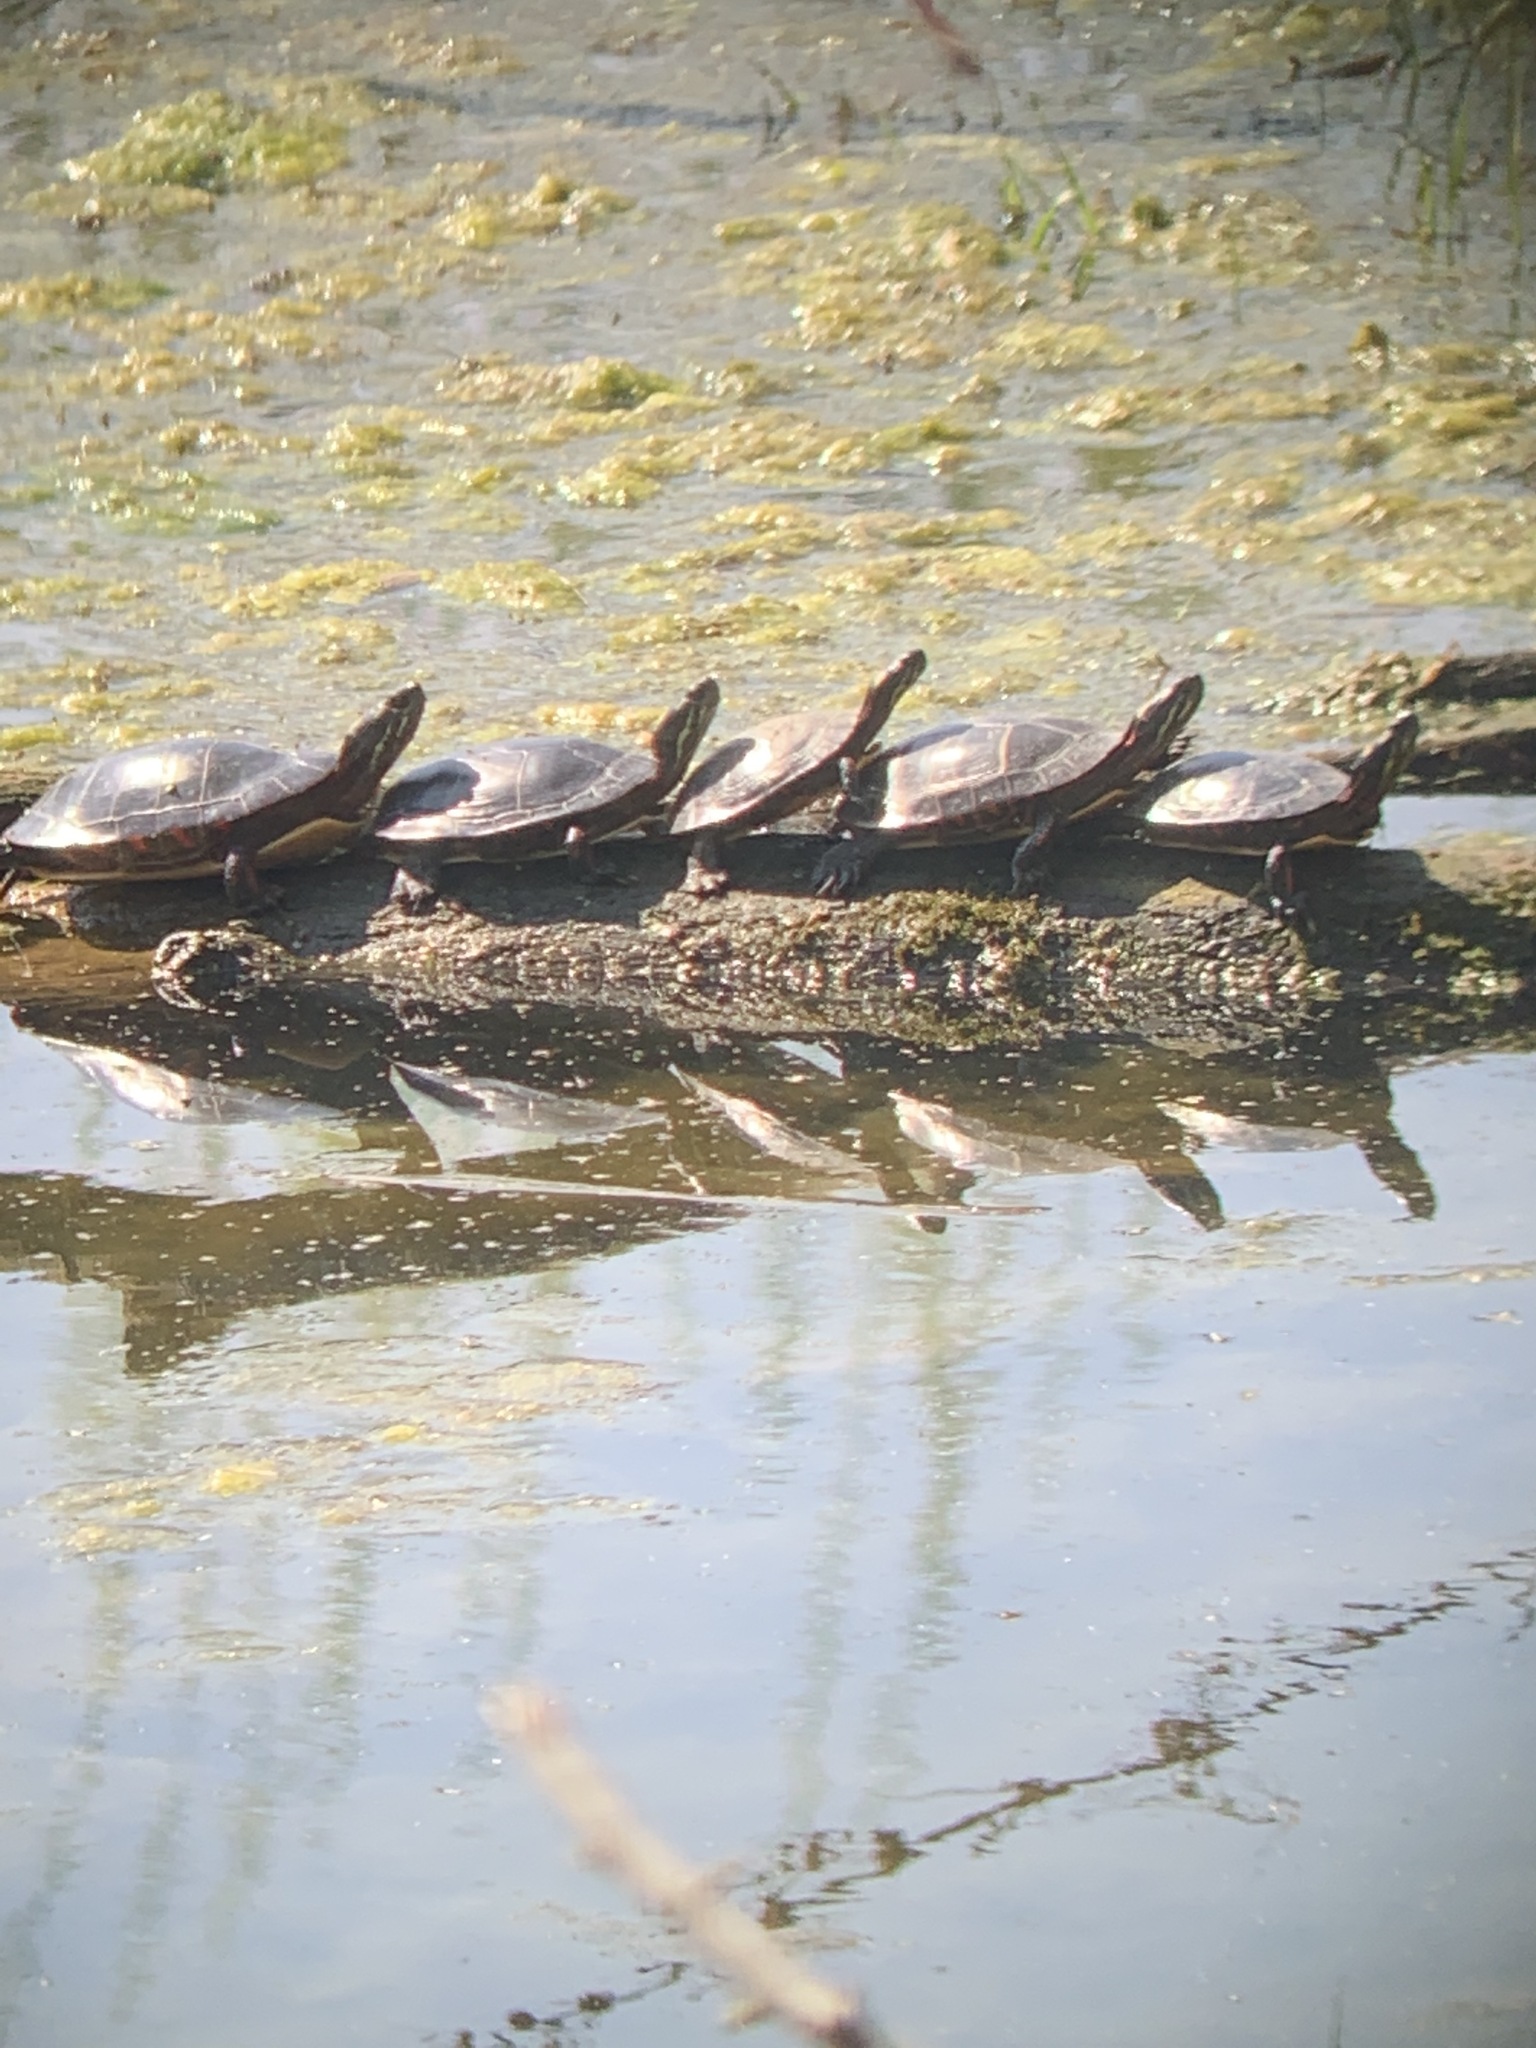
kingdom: Animalia
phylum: Chordata
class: Testudines
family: Emydidae
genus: Chrysemys
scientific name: Chrysemys picta
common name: Painted turtle
